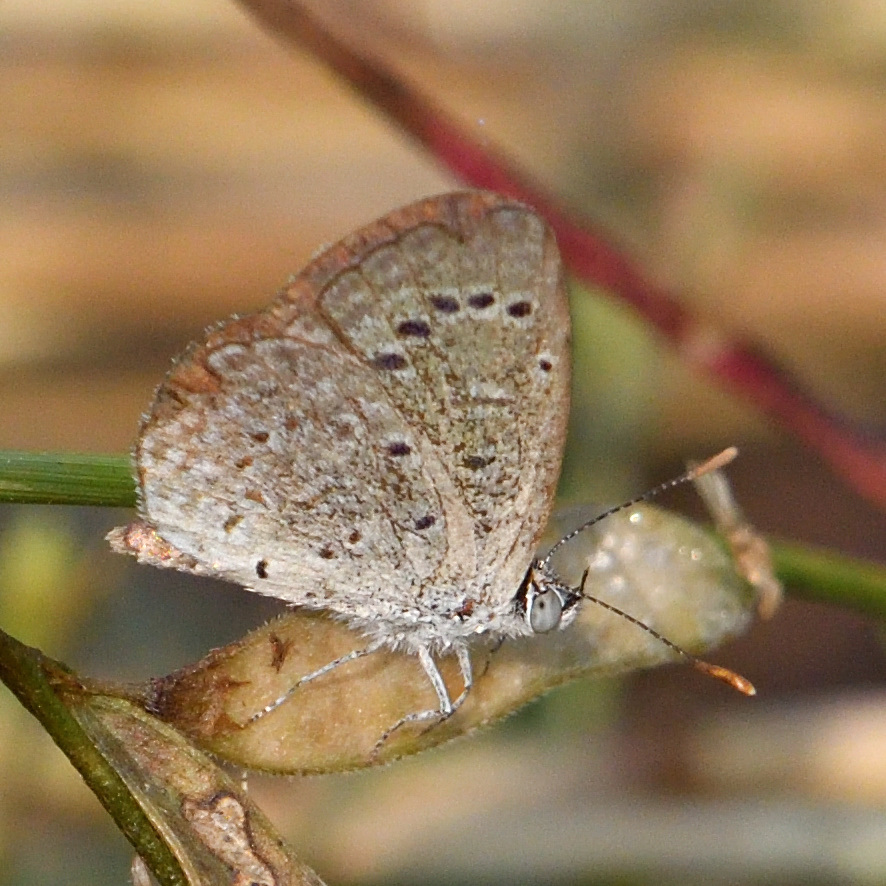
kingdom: Animalia
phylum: Arthropoda
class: Insecta
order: Lepidoptera
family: Lycaenidae
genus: Zizeeria
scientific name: Zizeeria karsandra
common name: Dark grass blue
